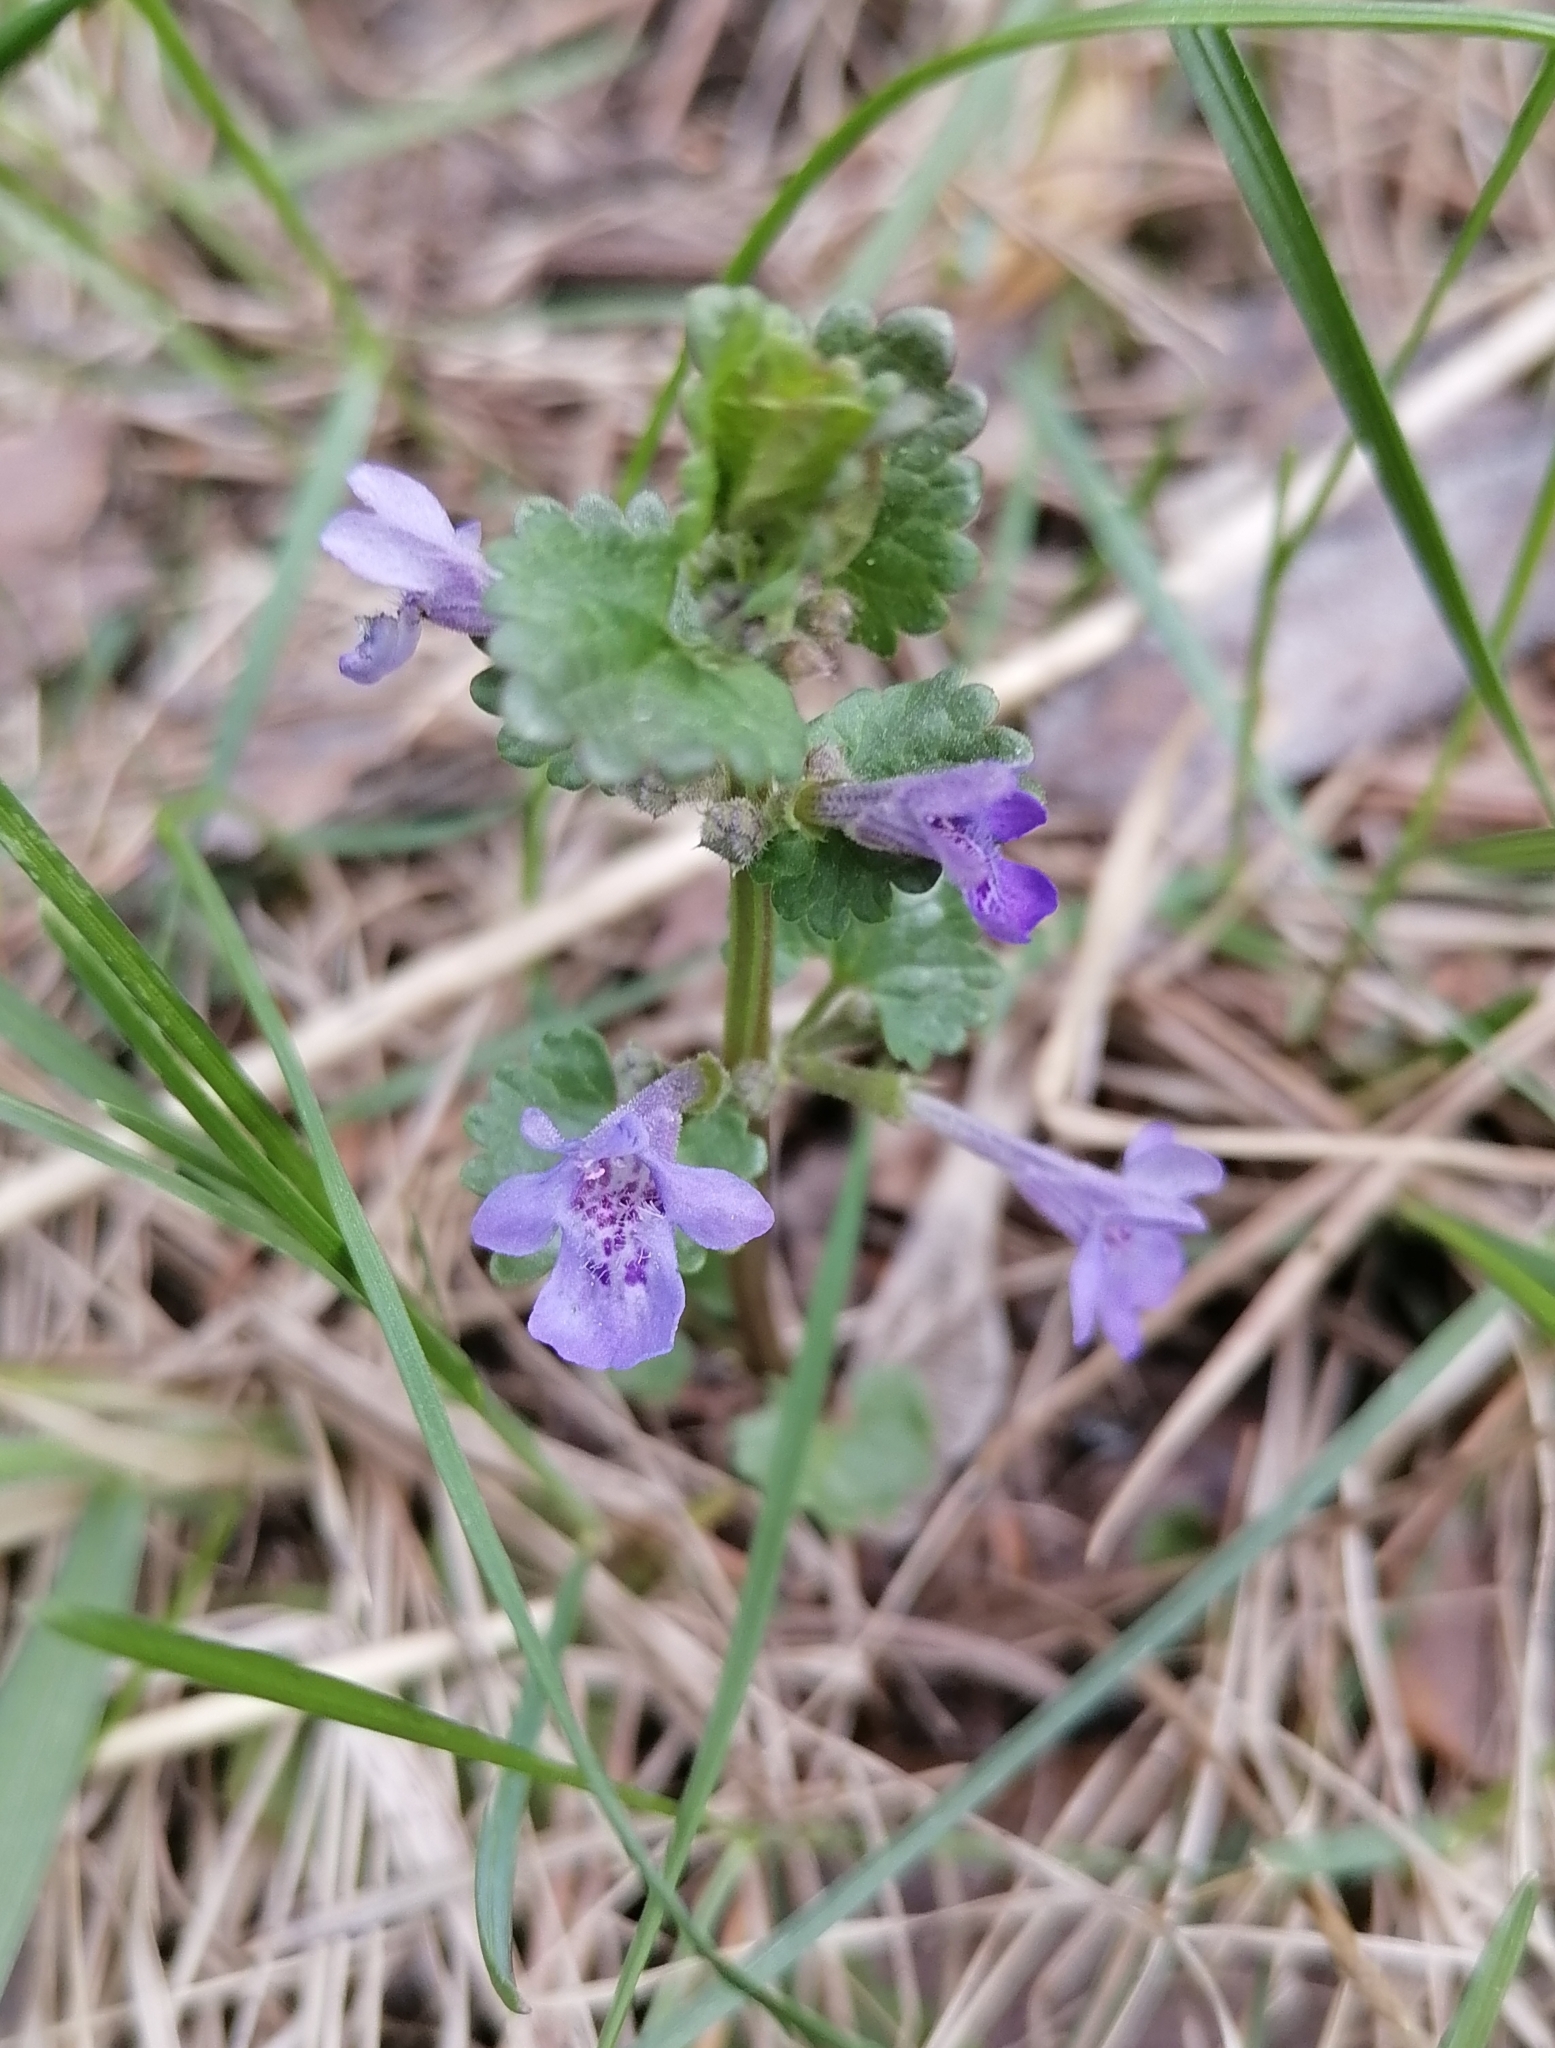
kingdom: Plantae
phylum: Tracheophyta
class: Magnoliopsida
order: Lamiales
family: Lamiaceae
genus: Glechoma
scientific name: Glechoma hederacea
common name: Ground ivy
